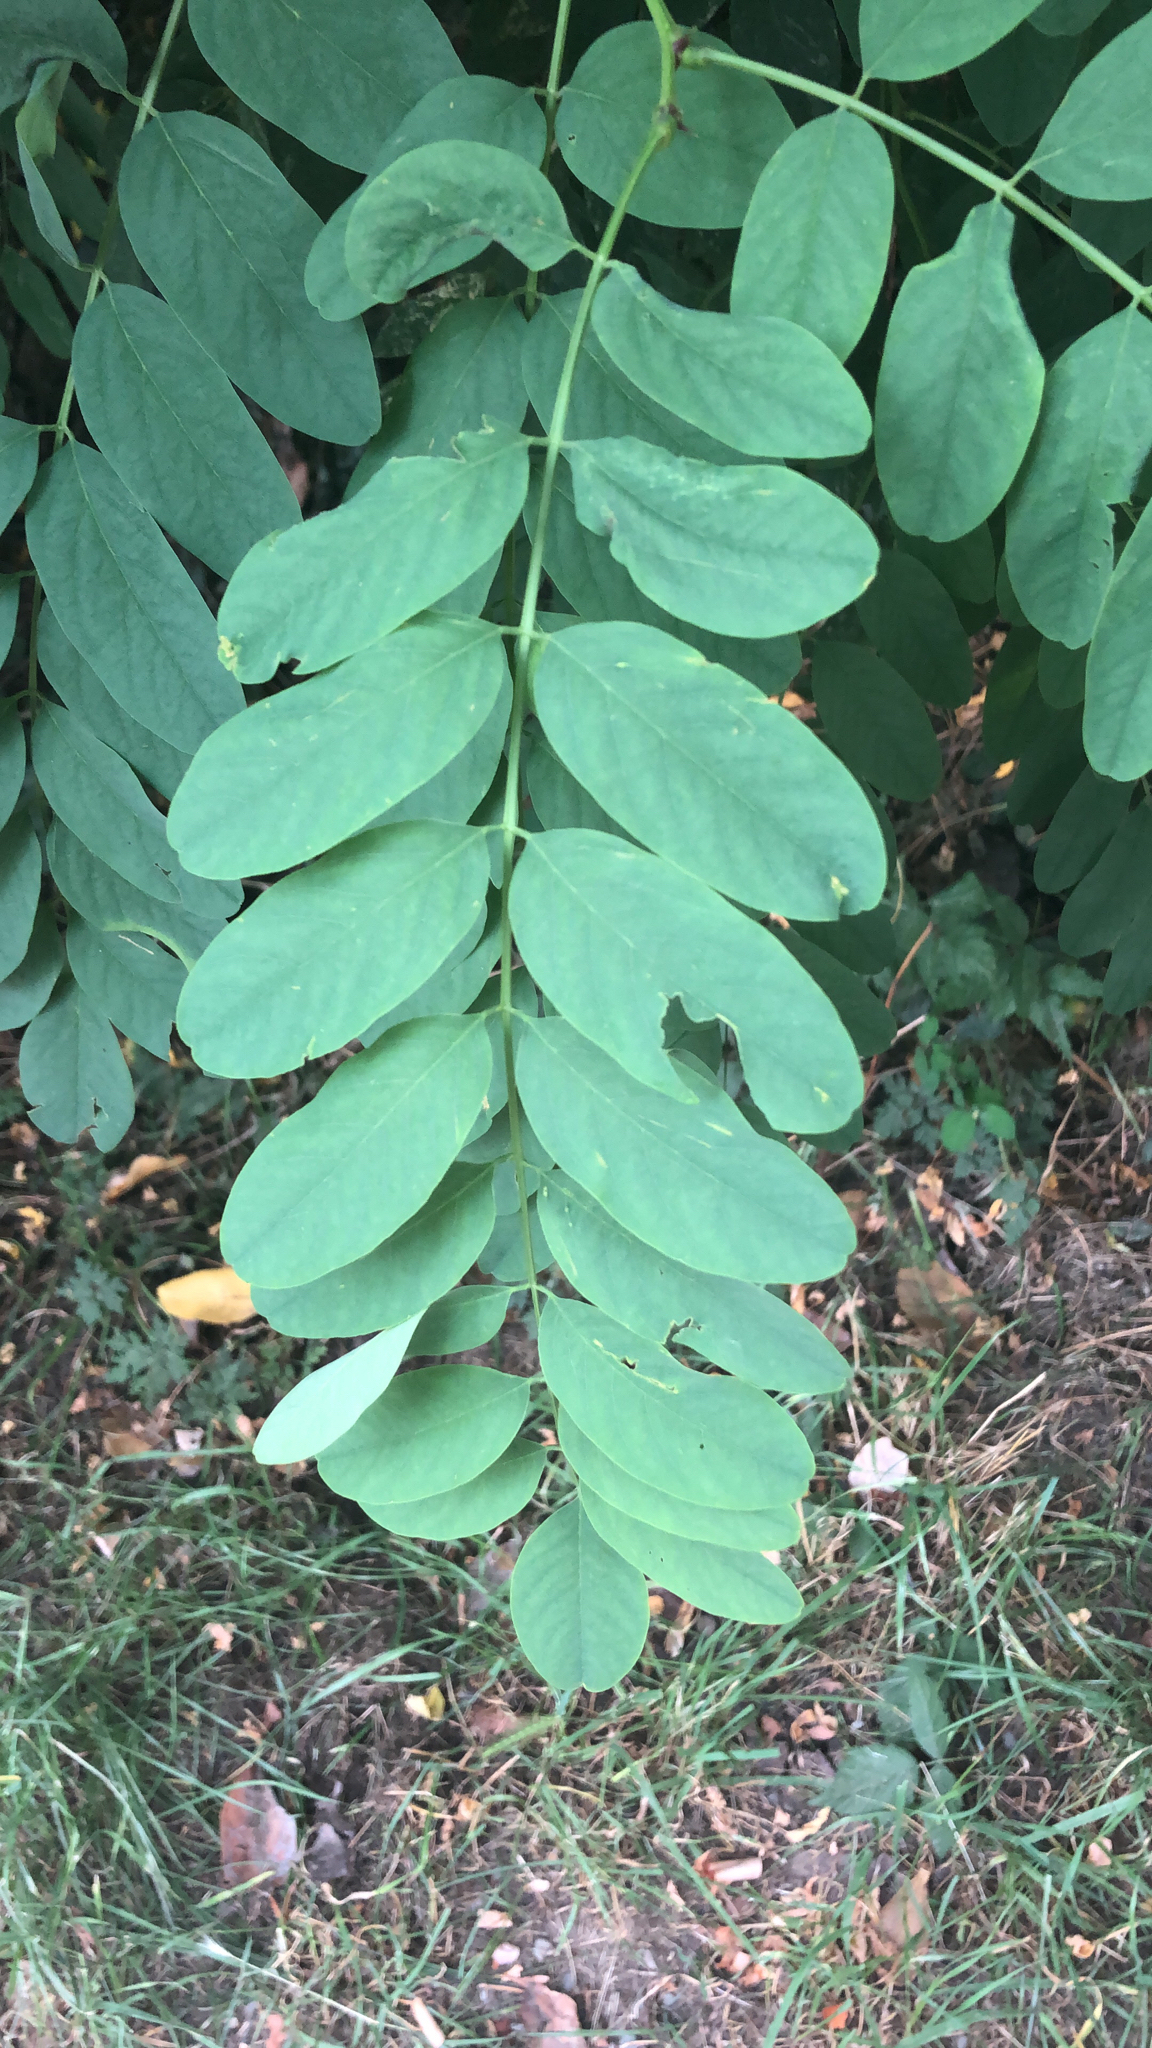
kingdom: Plantae
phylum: Tracheophyta
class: Magnoliopsida
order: Fabales
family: Fabaceae
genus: Robinia
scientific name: Robinia pseudoacacia
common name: Black locust
